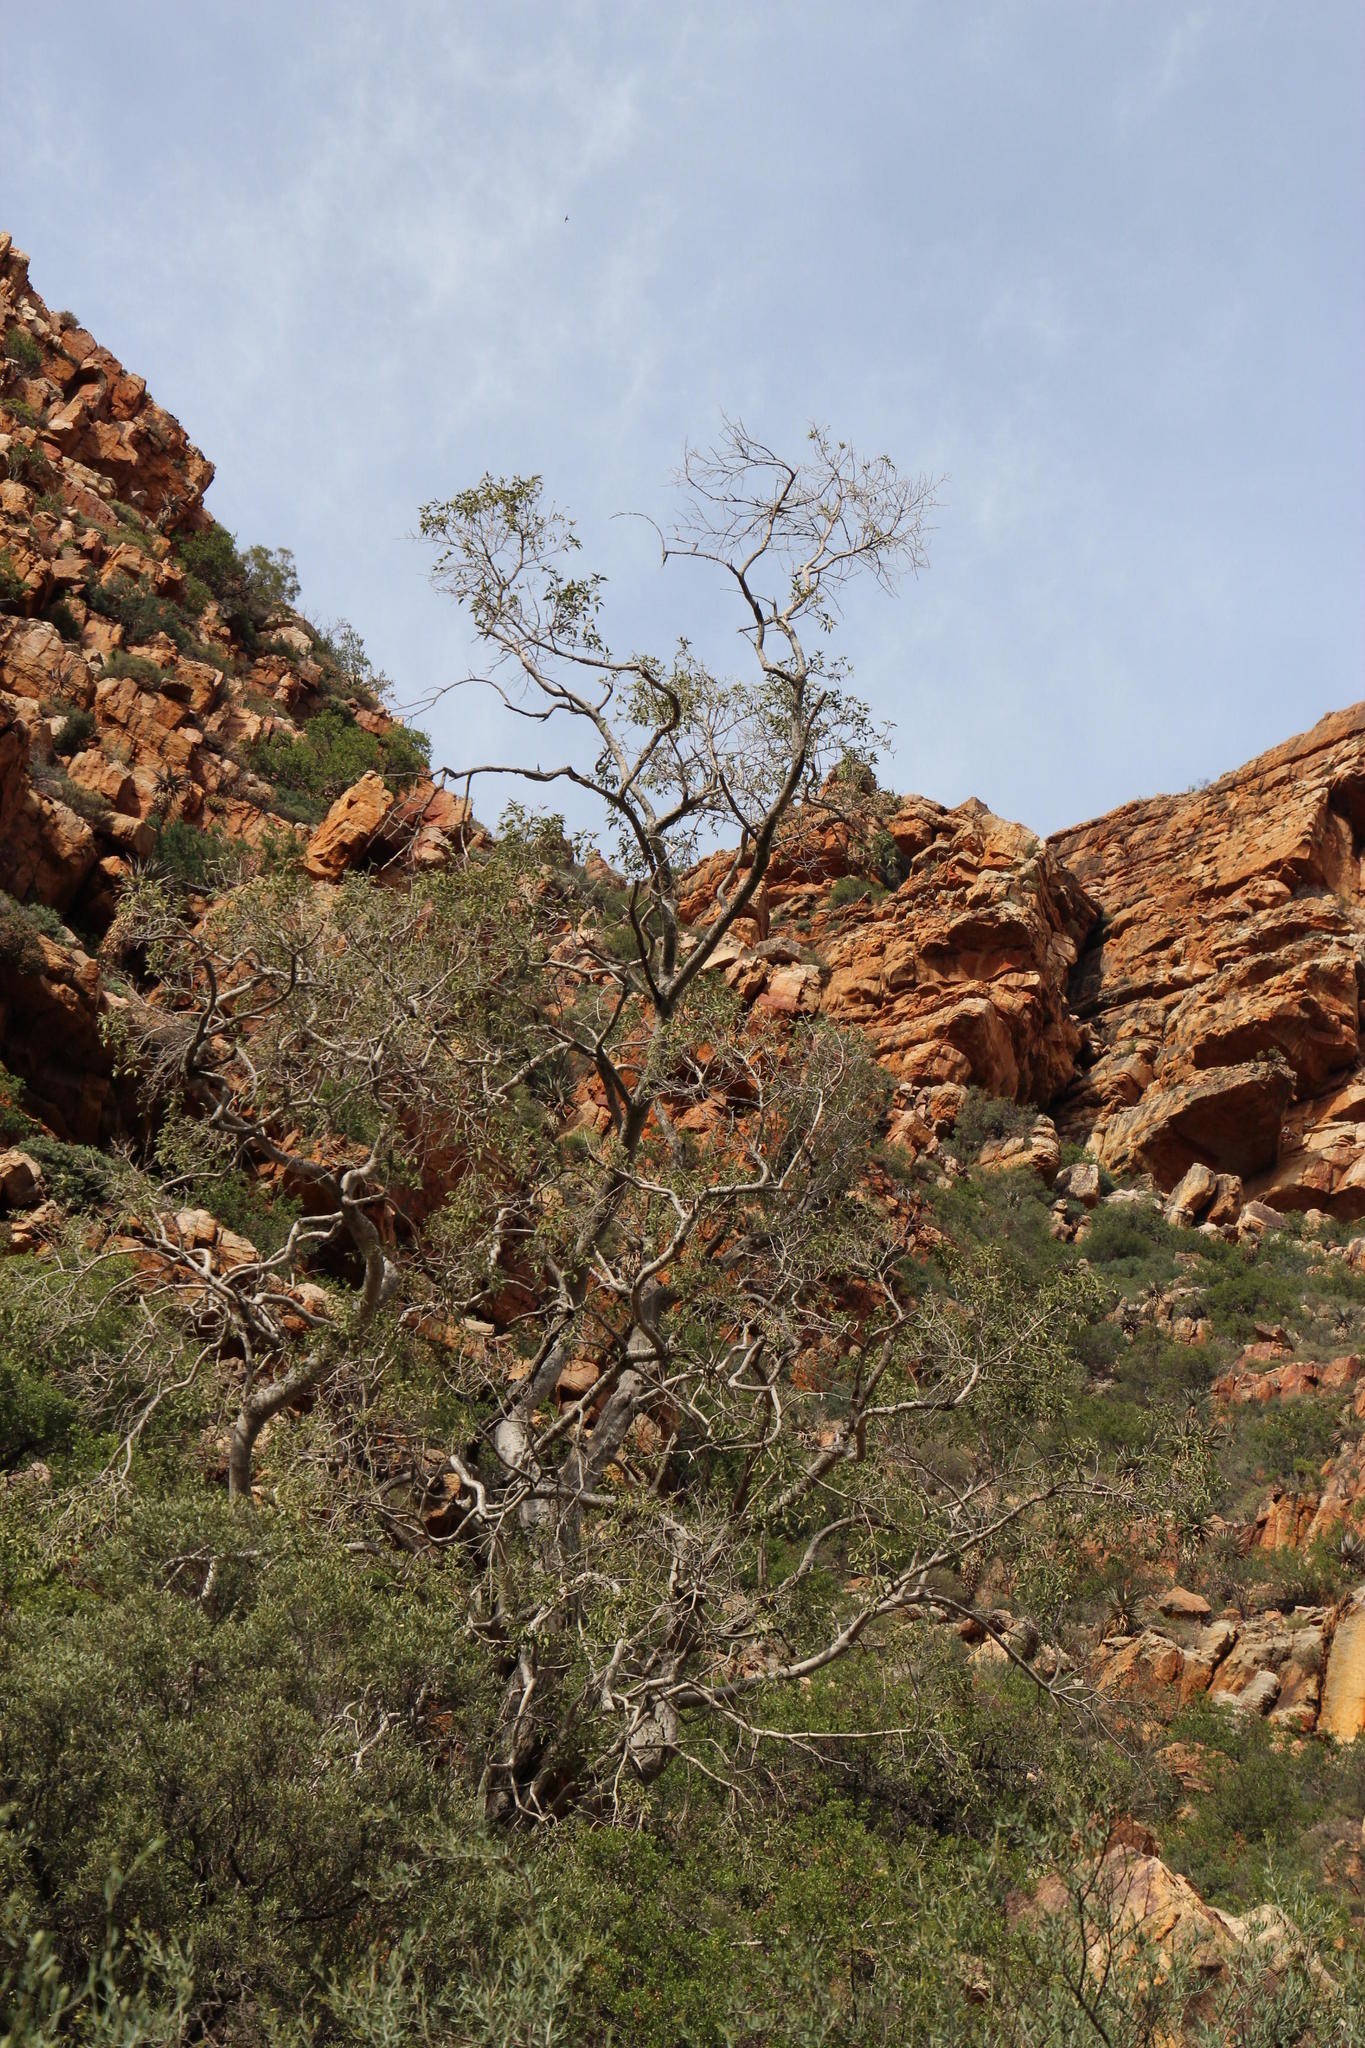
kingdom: Plantae
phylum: Tracheophyta
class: Magnoliopsida
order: Rosales
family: Moraceae
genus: Ficus
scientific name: Ficus cordata
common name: Namaqua rock fig
